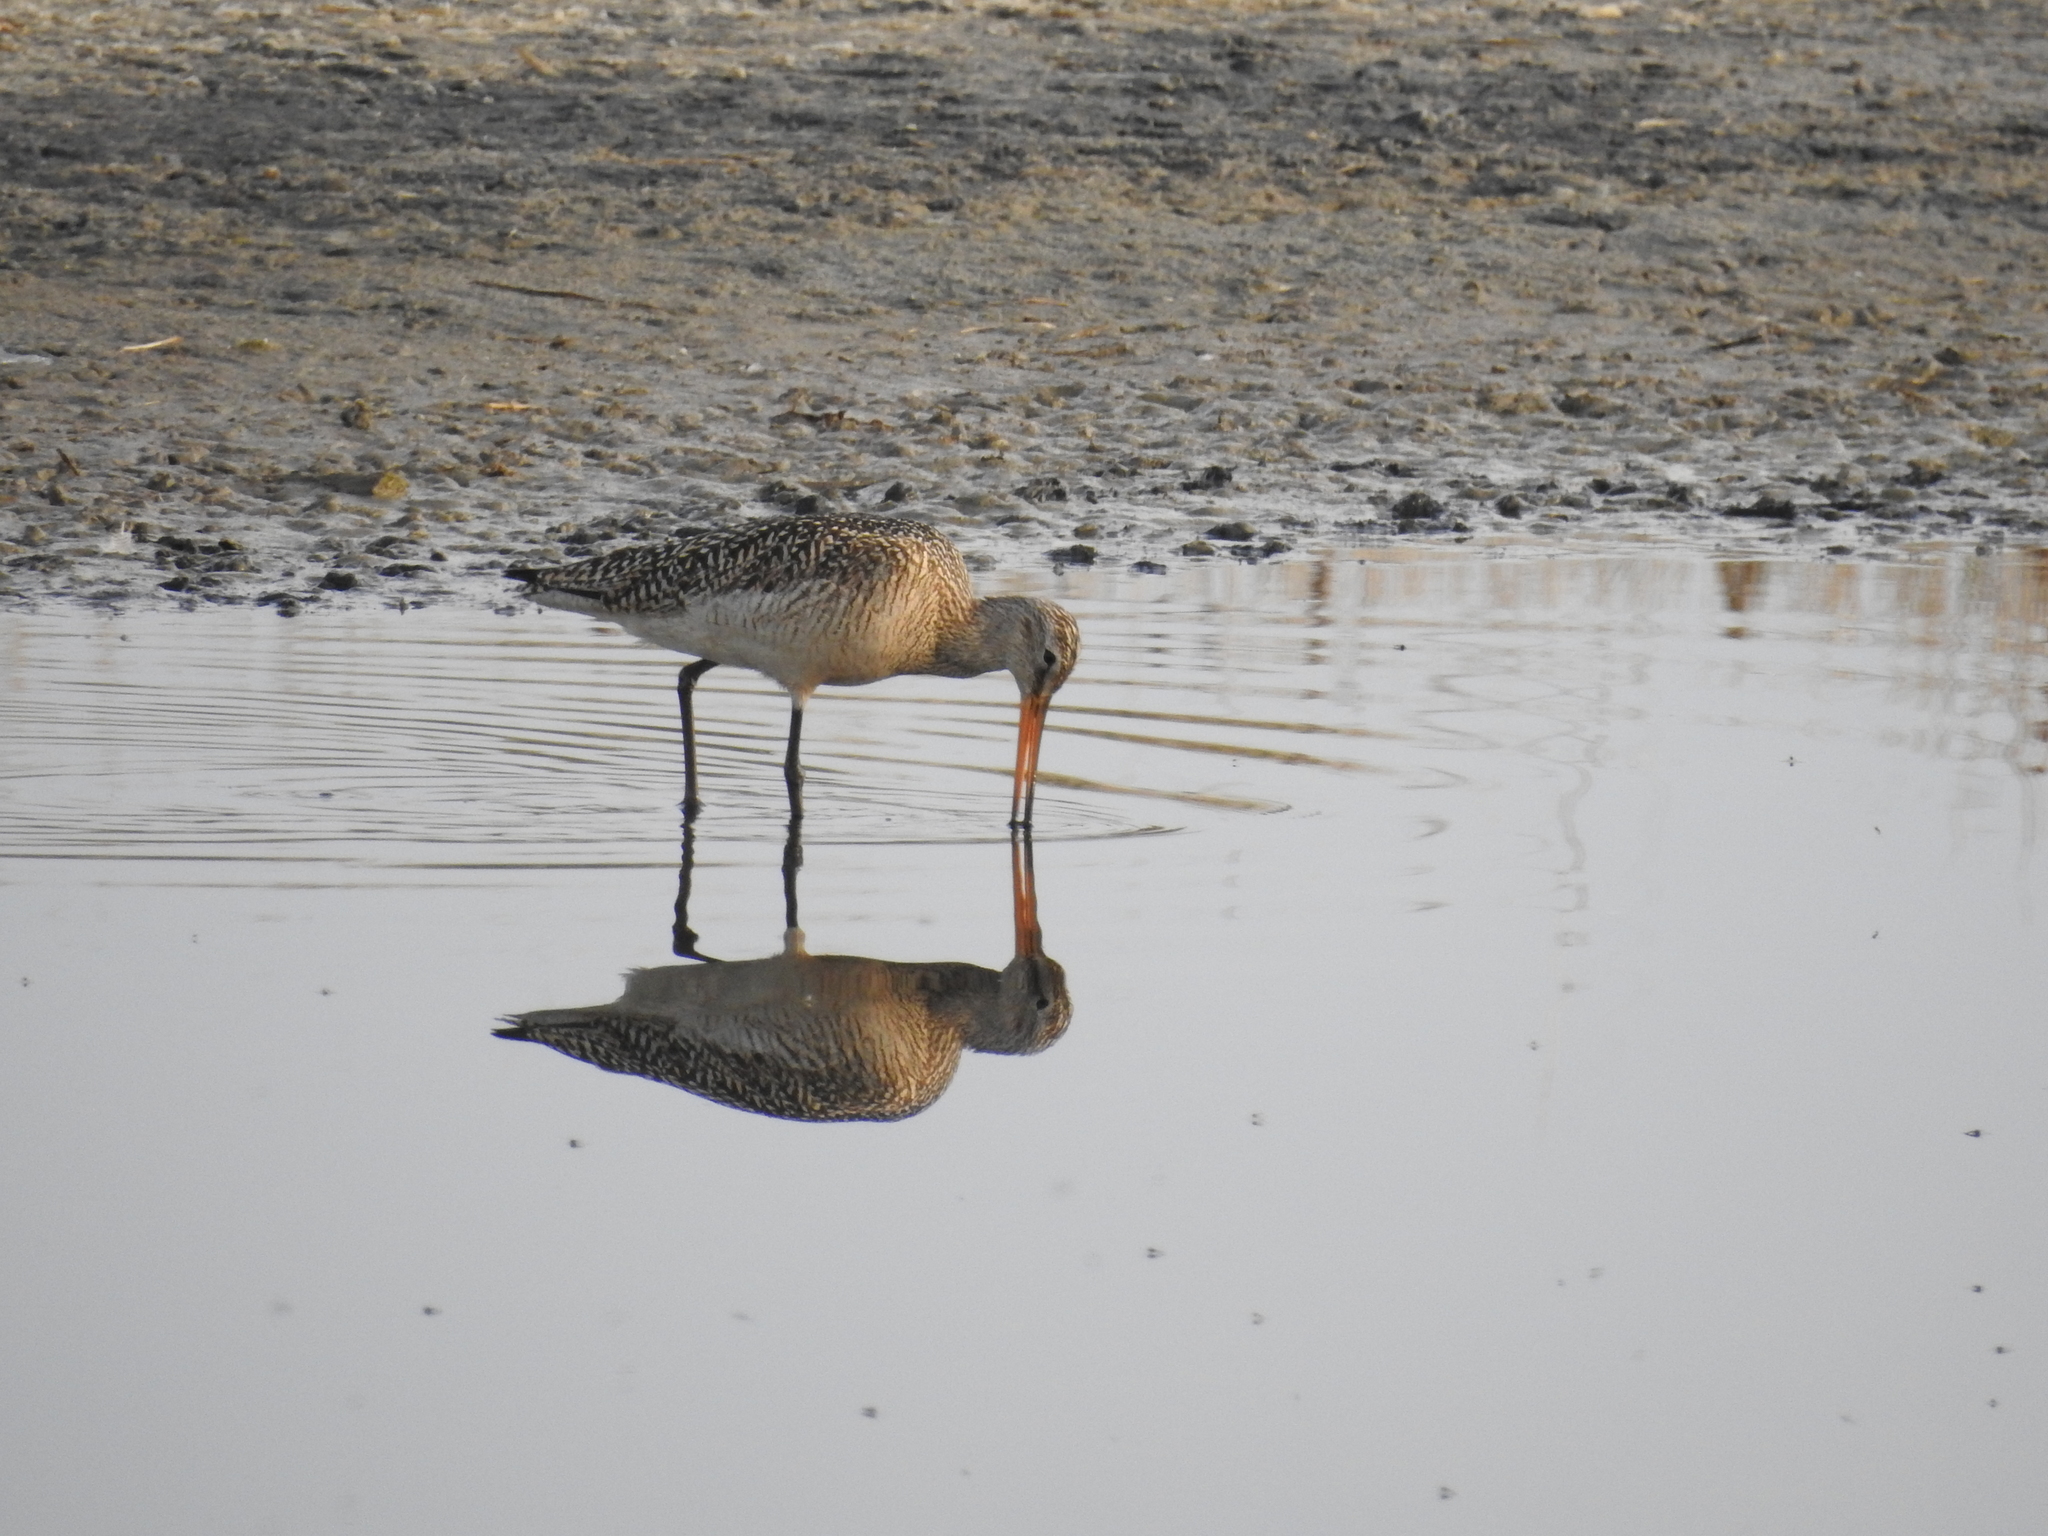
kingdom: Animalia
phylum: Chordata
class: Aves
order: Charadriiformes
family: Scolopacidae
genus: Limosa
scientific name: Limosa fedoa
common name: Marbled godwit
